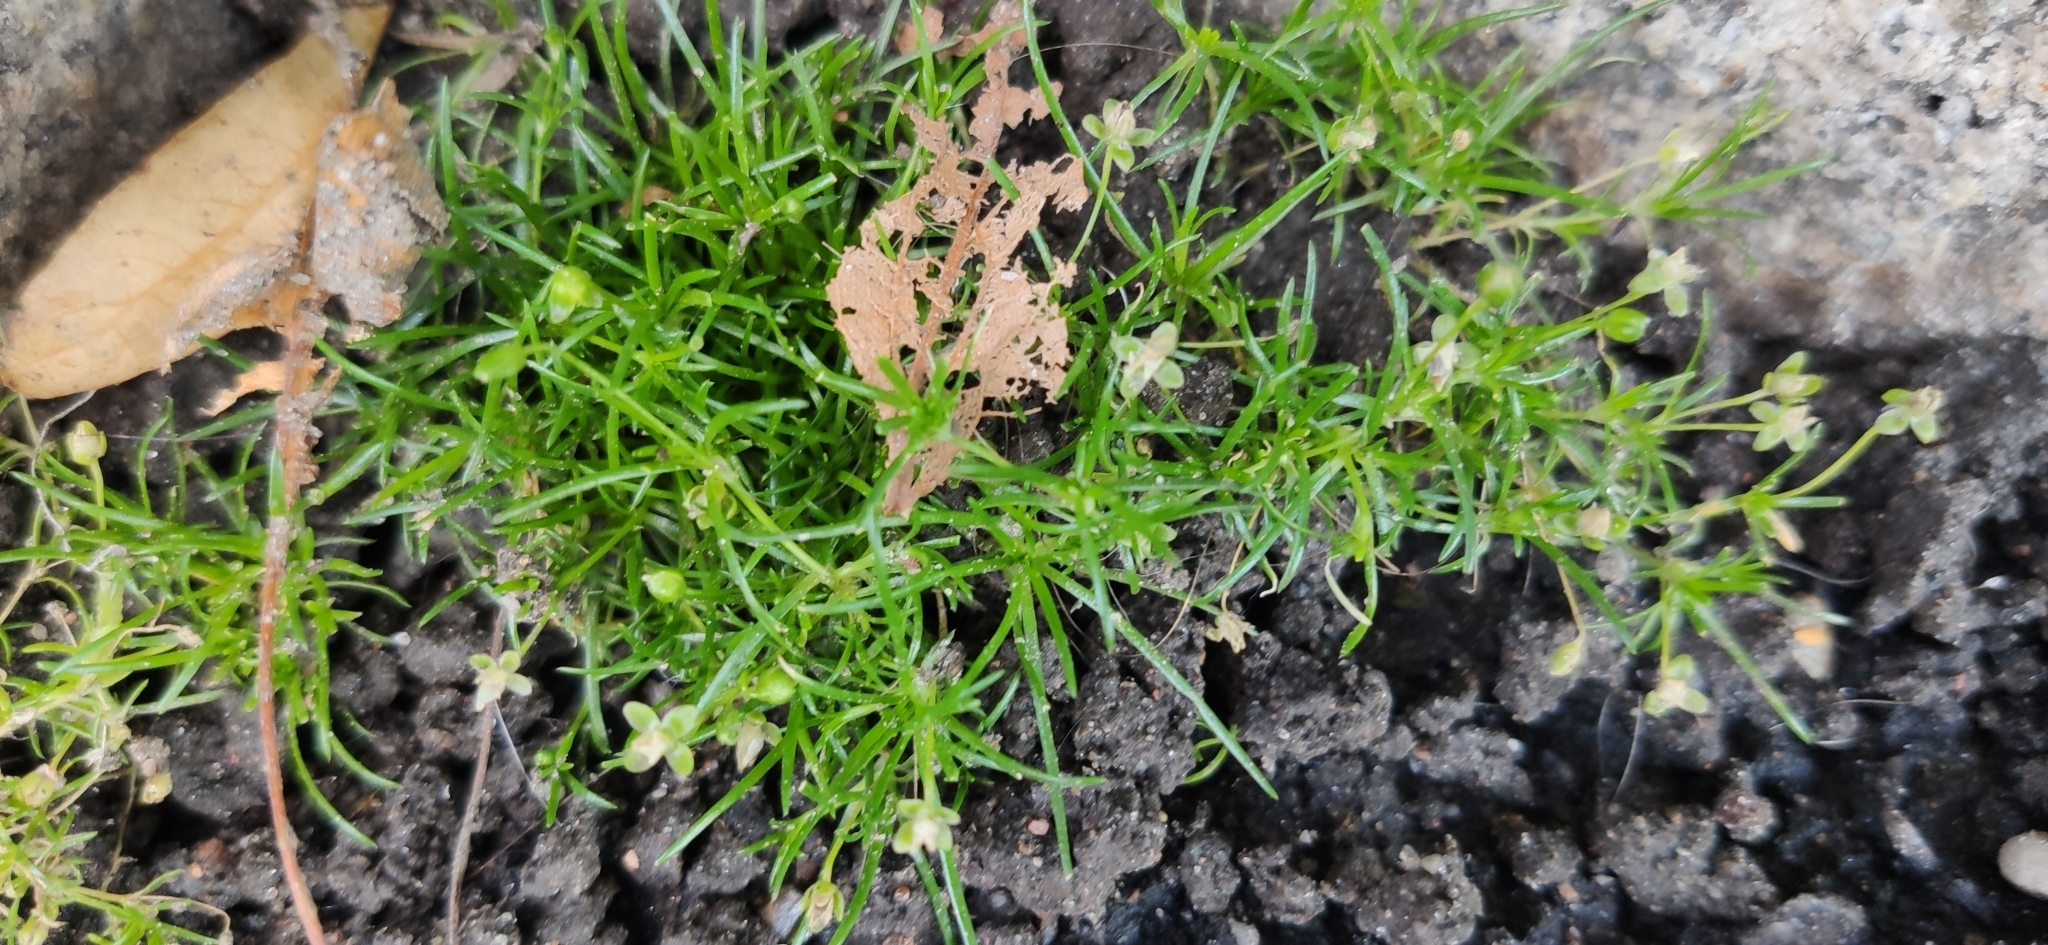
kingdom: Plantae
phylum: Tracheophyta
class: Magnoliopsida
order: Caryophyllales
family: Caryophyllaceae
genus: Sagina
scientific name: Sagina procumbens
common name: Procumbent pearlwort
